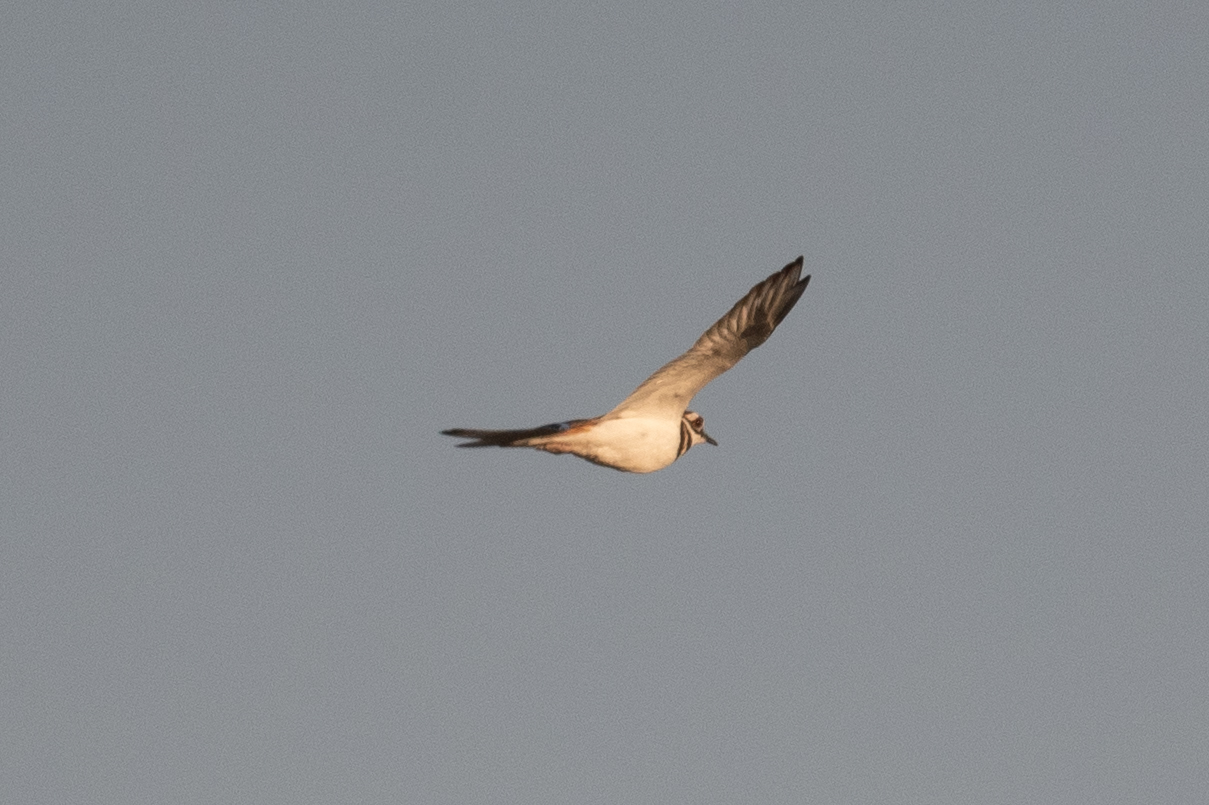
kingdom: Animalia
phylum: Chordata
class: Aves
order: Charadriiformes
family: Charadriidae
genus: Charadrius
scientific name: Charadrius vociferus
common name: Killdeer
